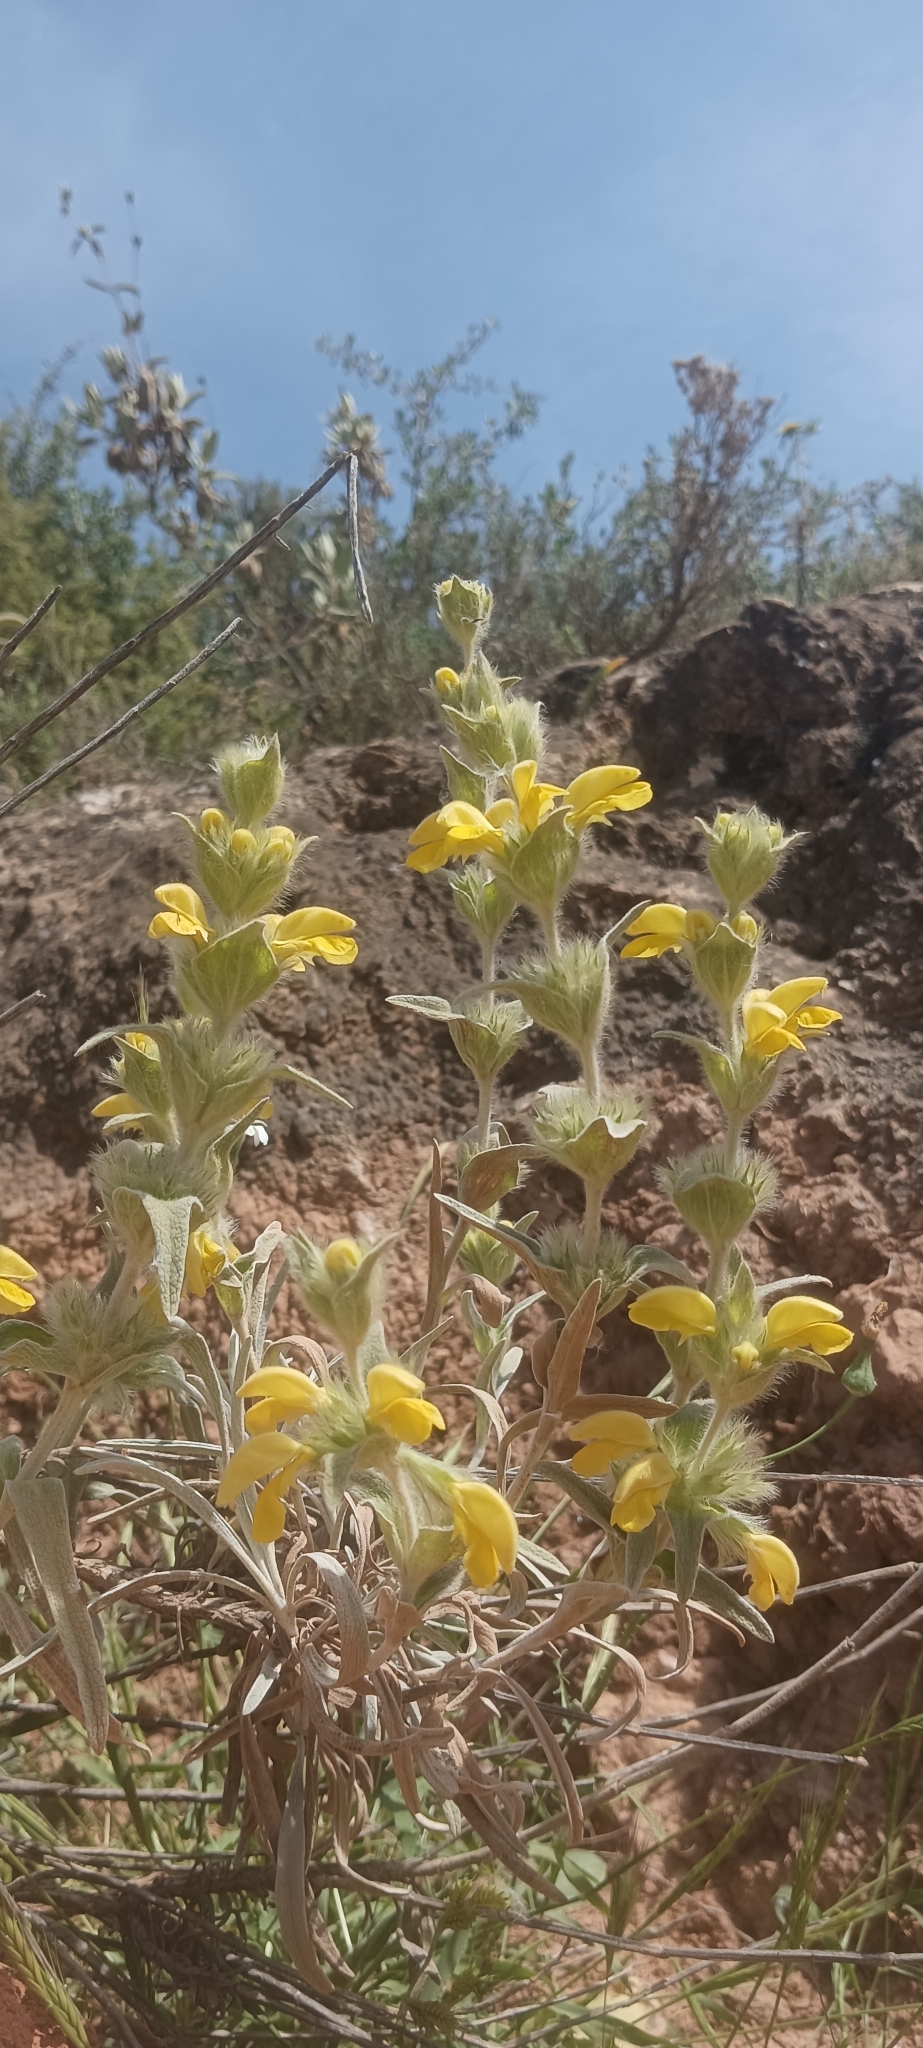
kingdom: Plantae
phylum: Tracheophyta
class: Magnoliopsida
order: Lamiales
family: Lamiaceae
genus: Phlomis
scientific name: Phlomis lychnitis
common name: Lampwickplant
